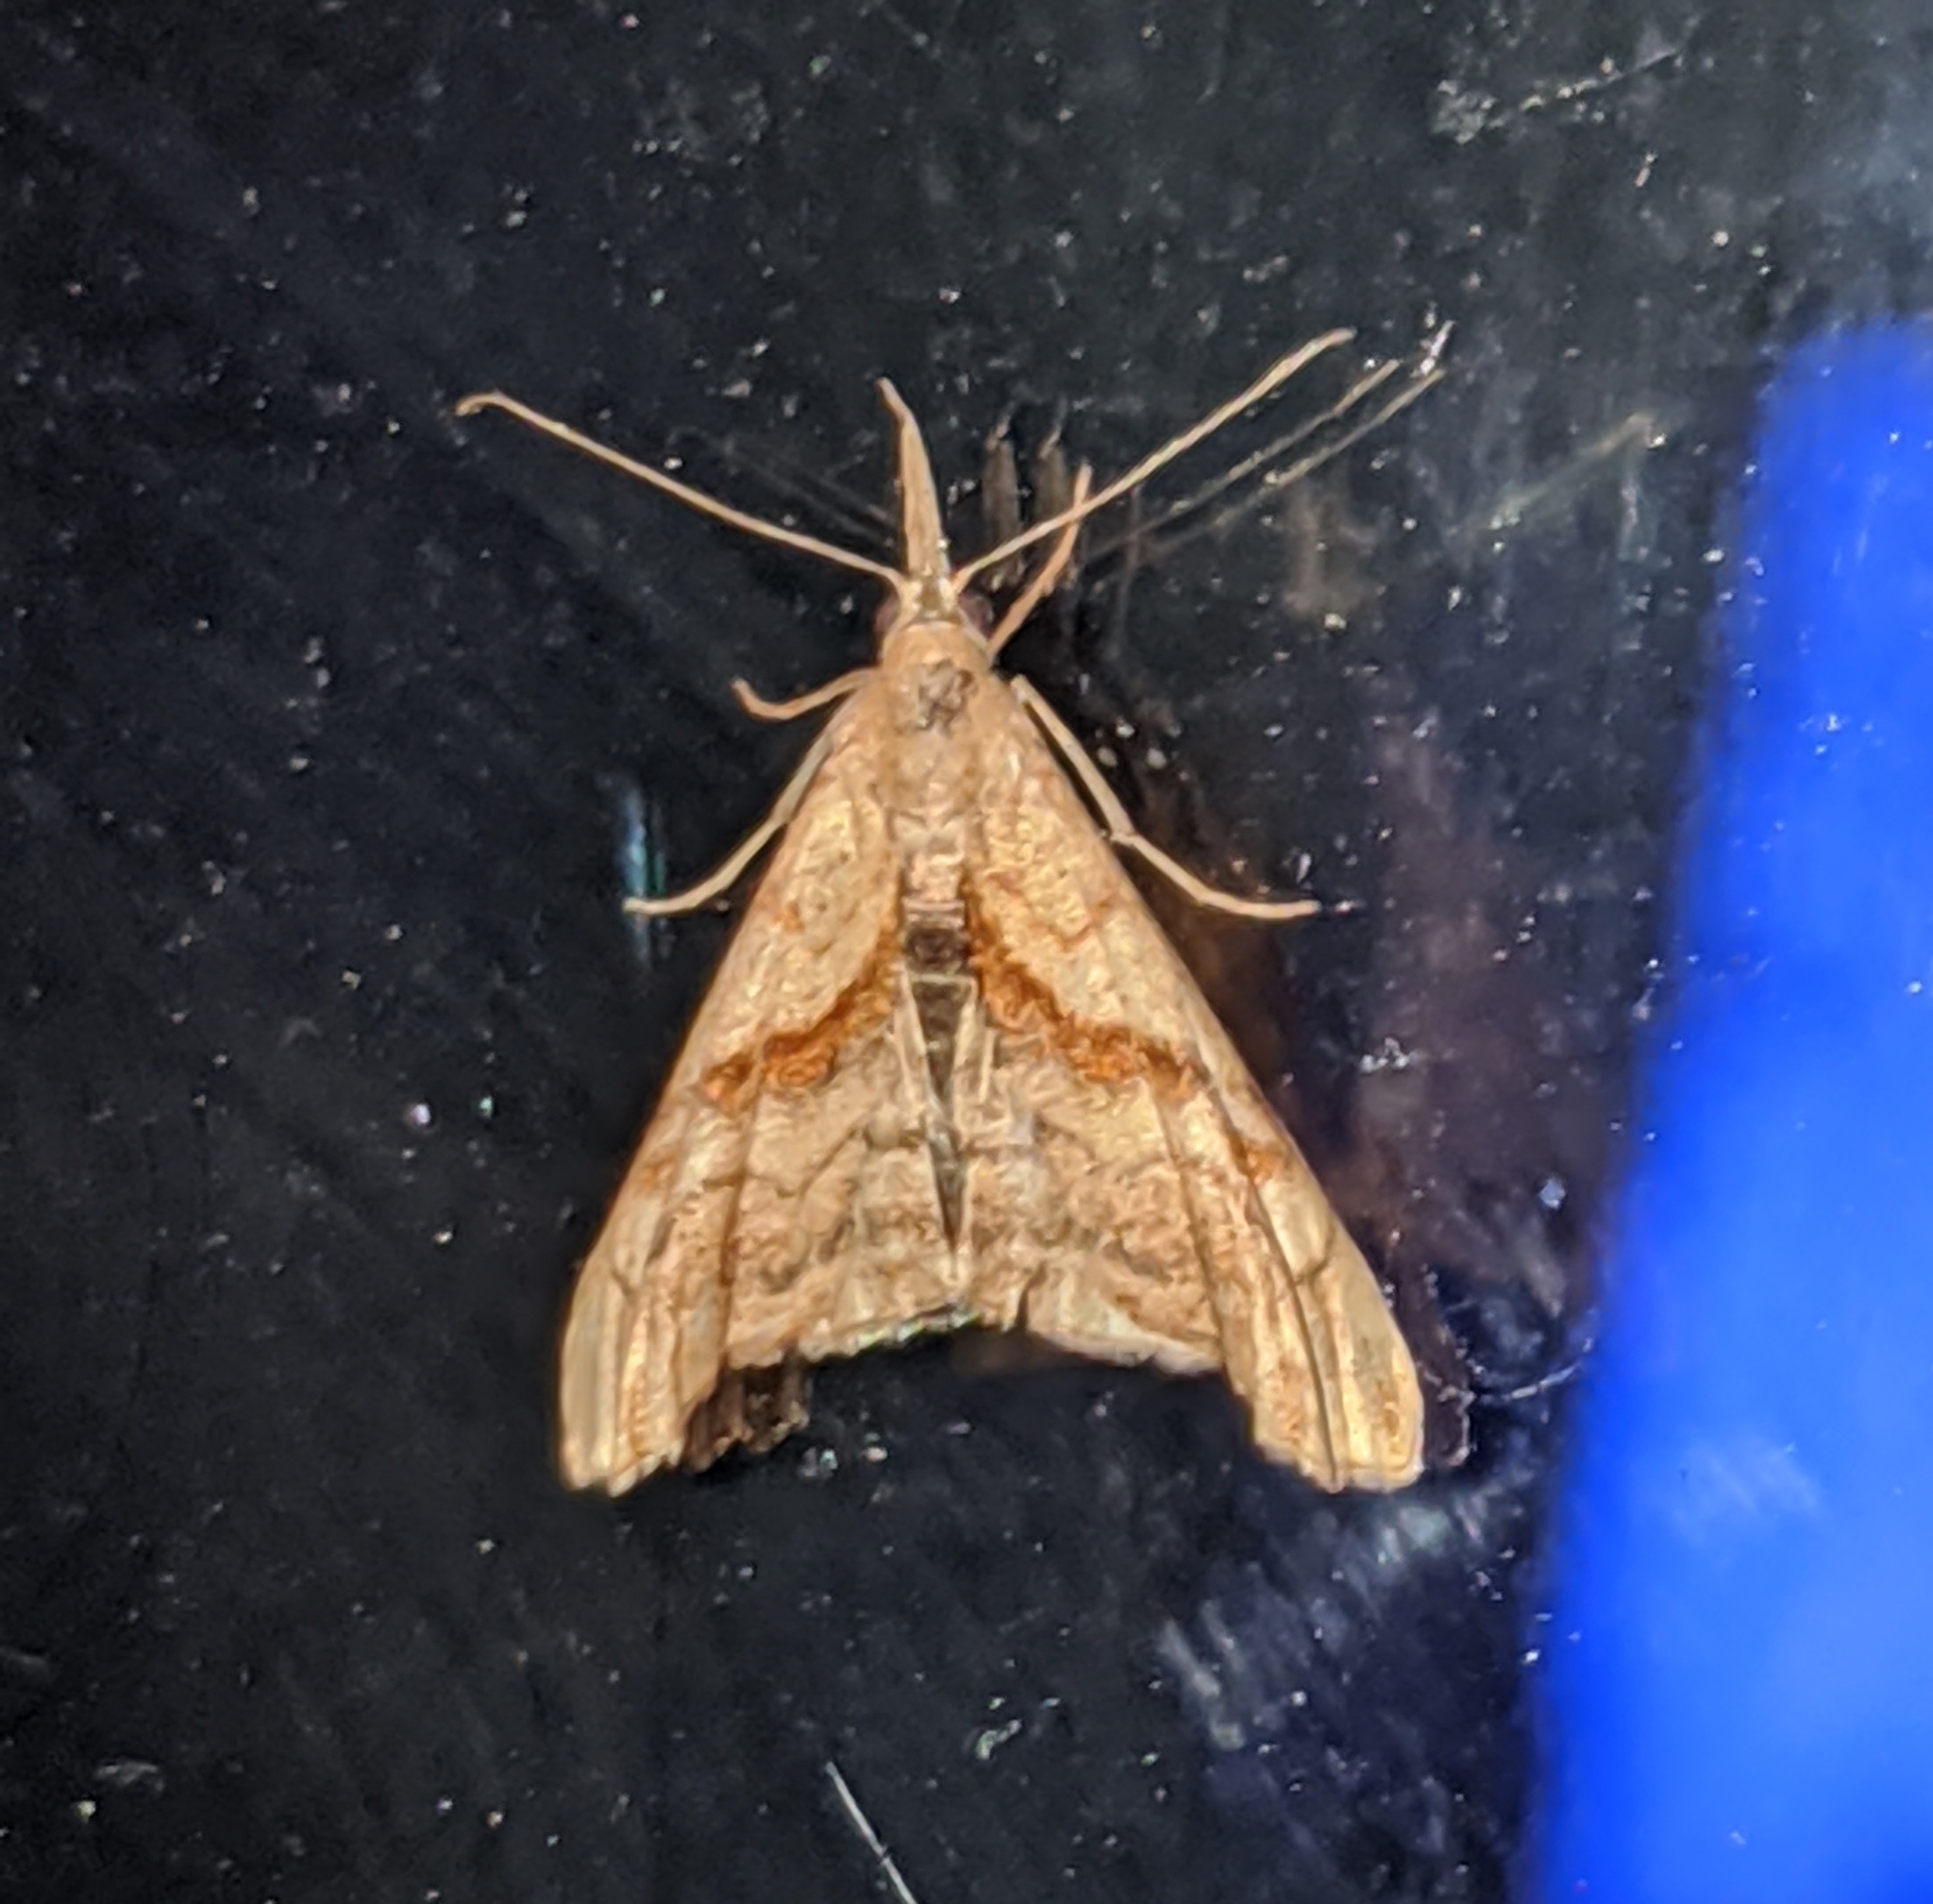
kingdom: Animalia
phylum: Arthropoda
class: Insecta
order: Lepidoptera
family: Erebidae
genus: Palthis
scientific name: Palthis angulalis
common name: Dark-spotted palthis moth
